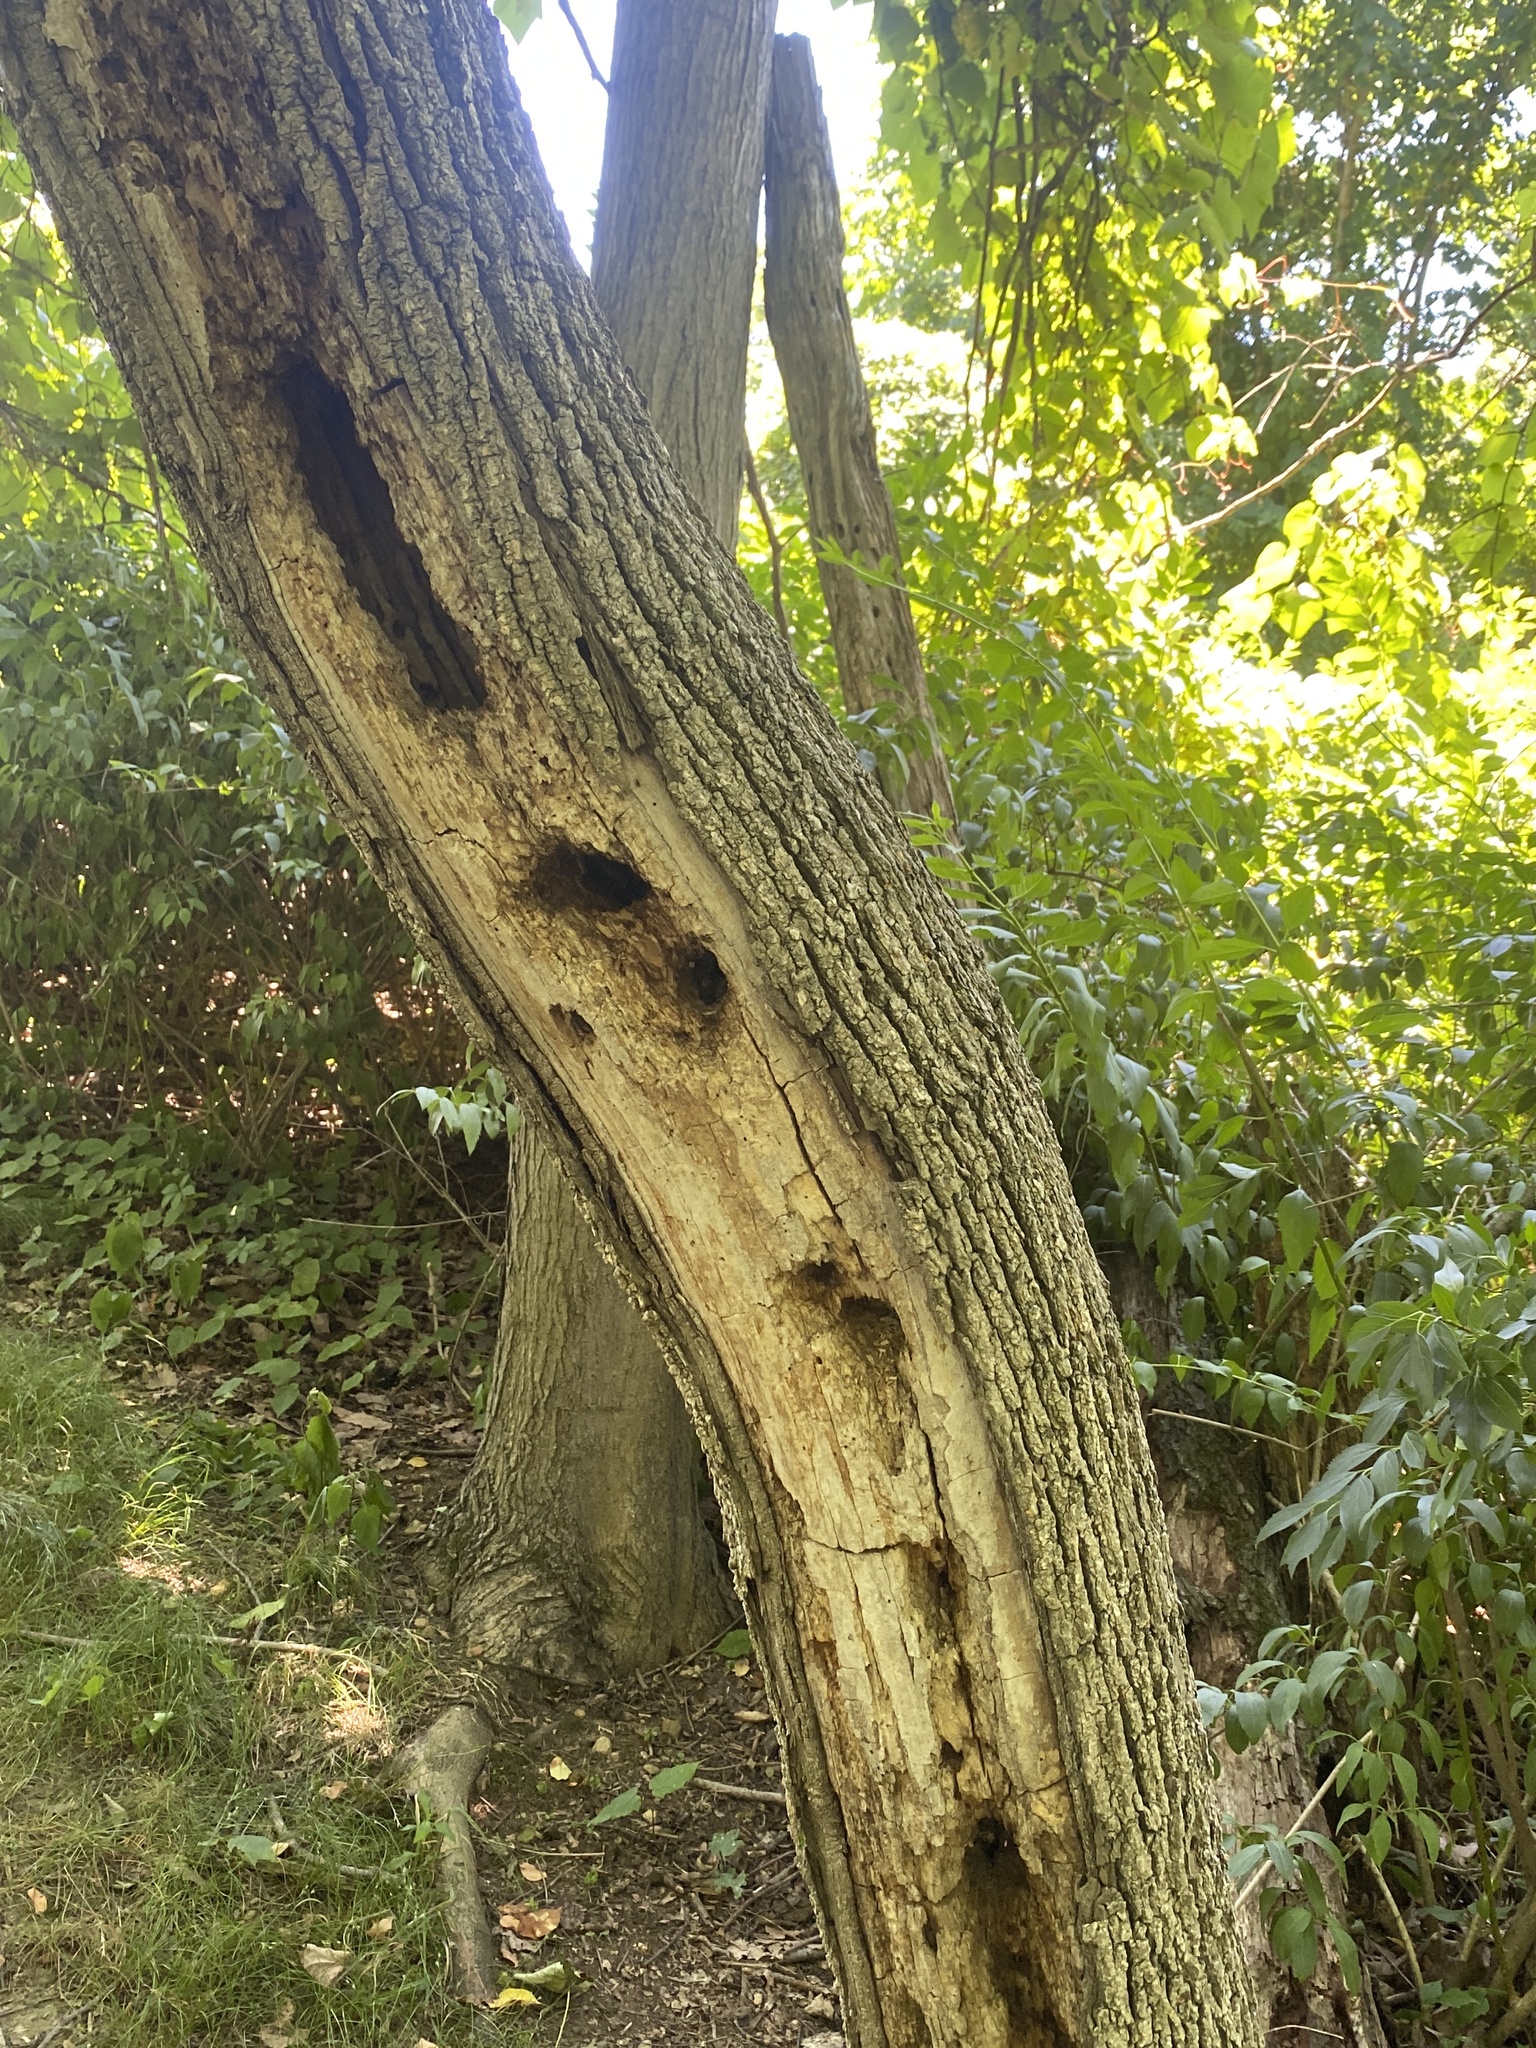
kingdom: Animalia
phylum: Chordata
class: Aves
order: Piciformes
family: Picidae
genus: Dryocopus
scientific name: Dryocopus pileatus
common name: Pileated woodpecker
